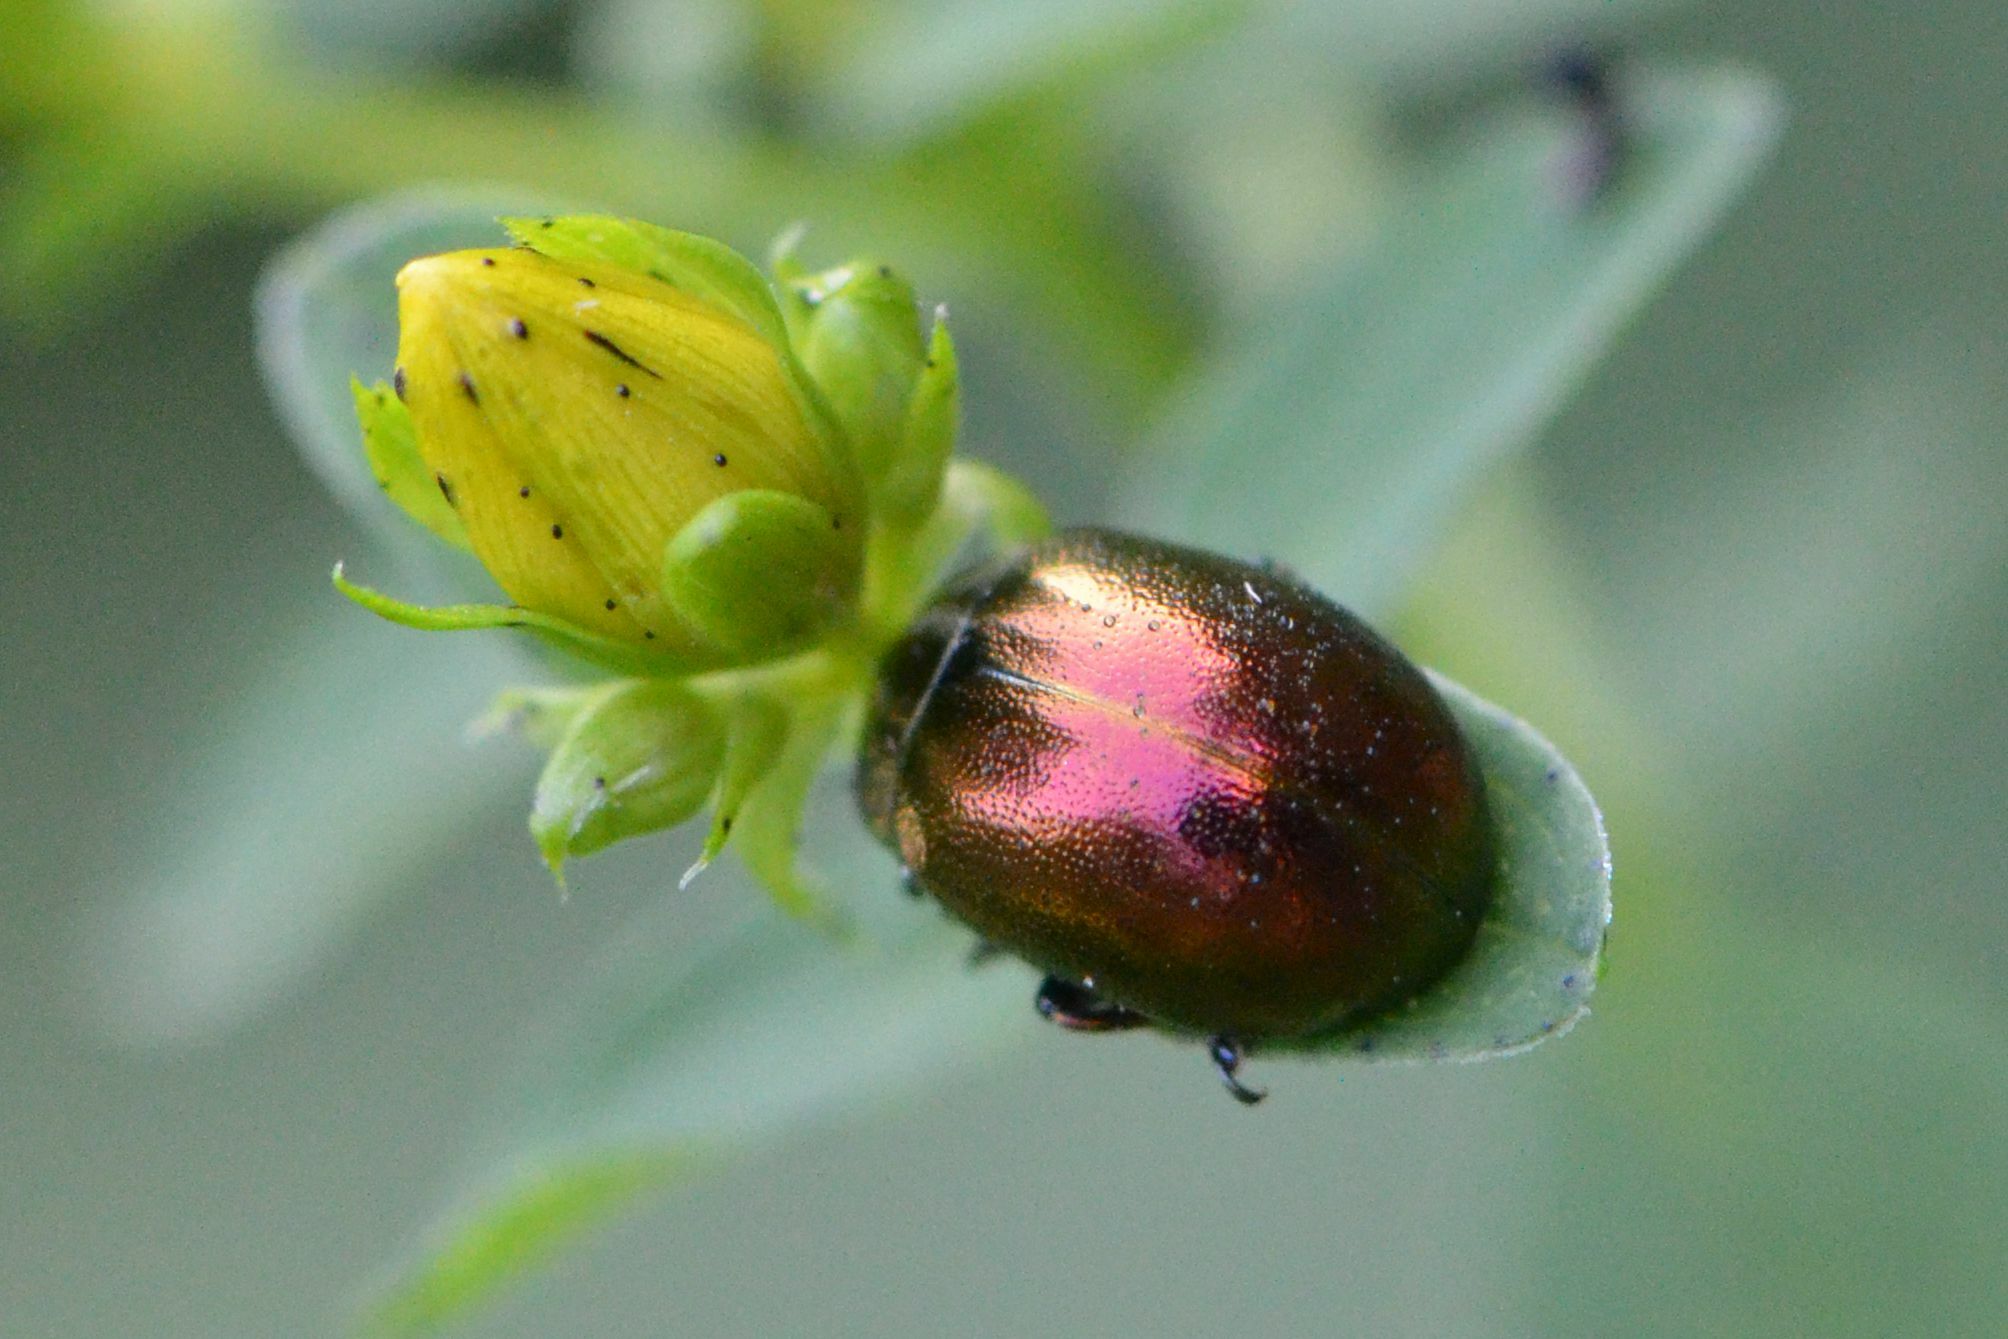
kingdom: Animalia
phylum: Arthropoda
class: Insecta
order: Coleoptera
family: Chrysomelidae
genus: Chrysolina
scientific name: Chrysolina varians
